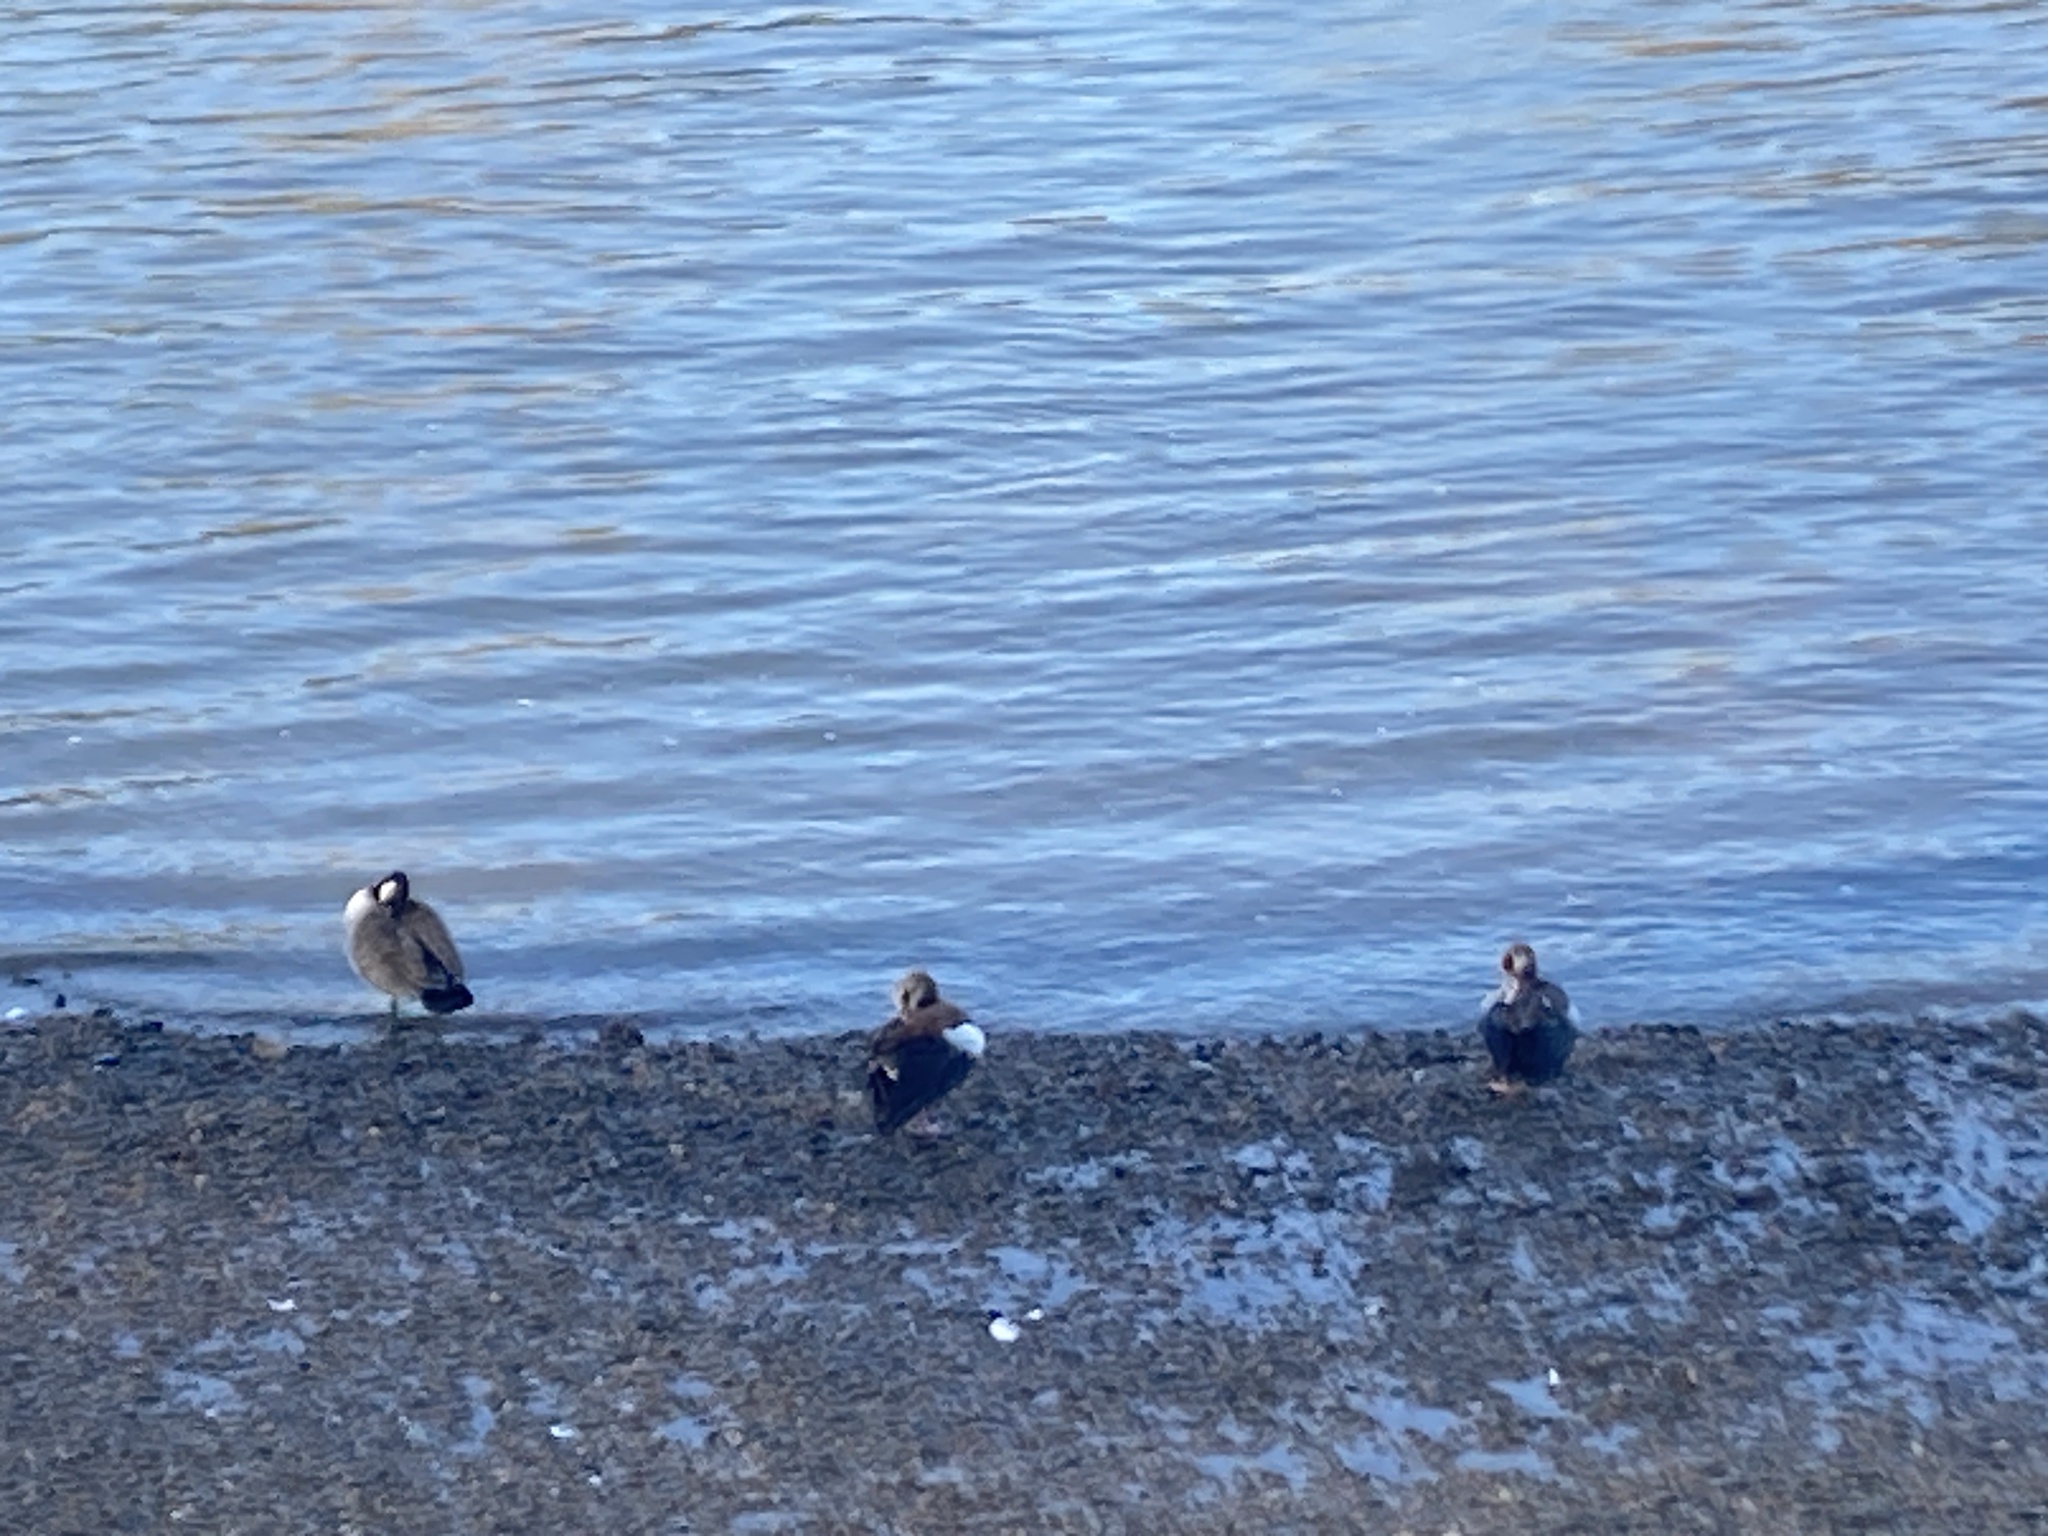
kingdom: Animalia
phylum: Chordata
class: Aves
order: Anseriformes
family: Anatidae
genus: Alopochen
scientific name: Alopochen aegyptiaca
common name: Egyptian goose
